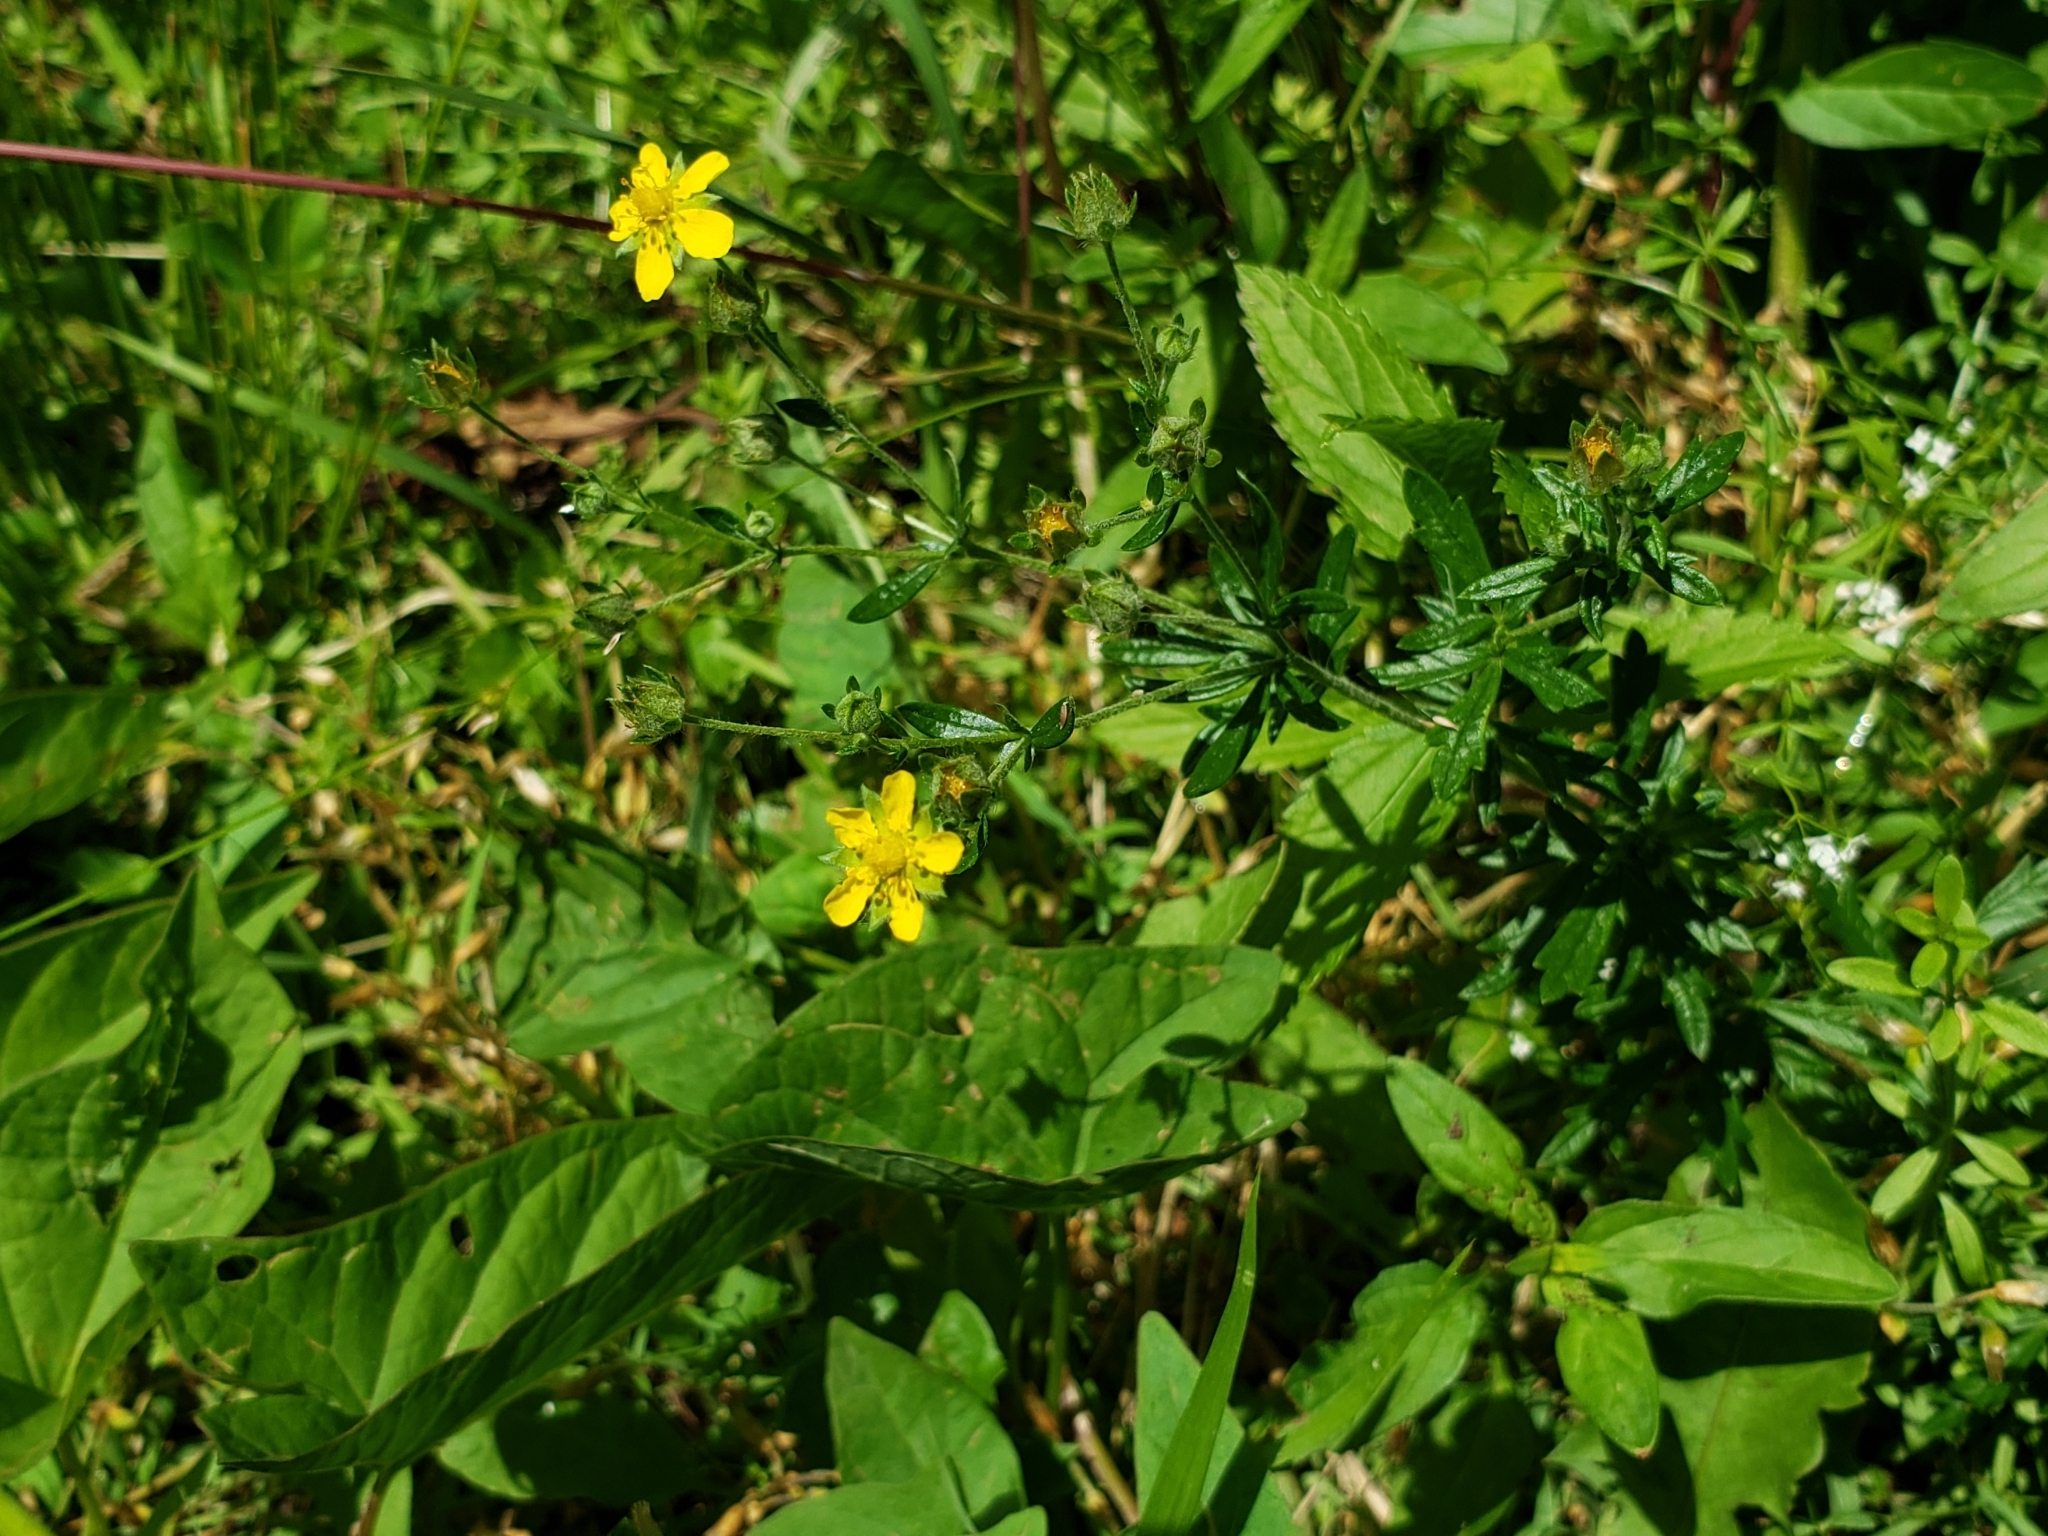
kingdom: Plantae
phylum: Tracheophyta
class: Magnoliopsida
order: Rosales
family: Rosaceae
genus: Potentilla
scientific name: Potentilla argentea
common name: Hoary cinquefoil
